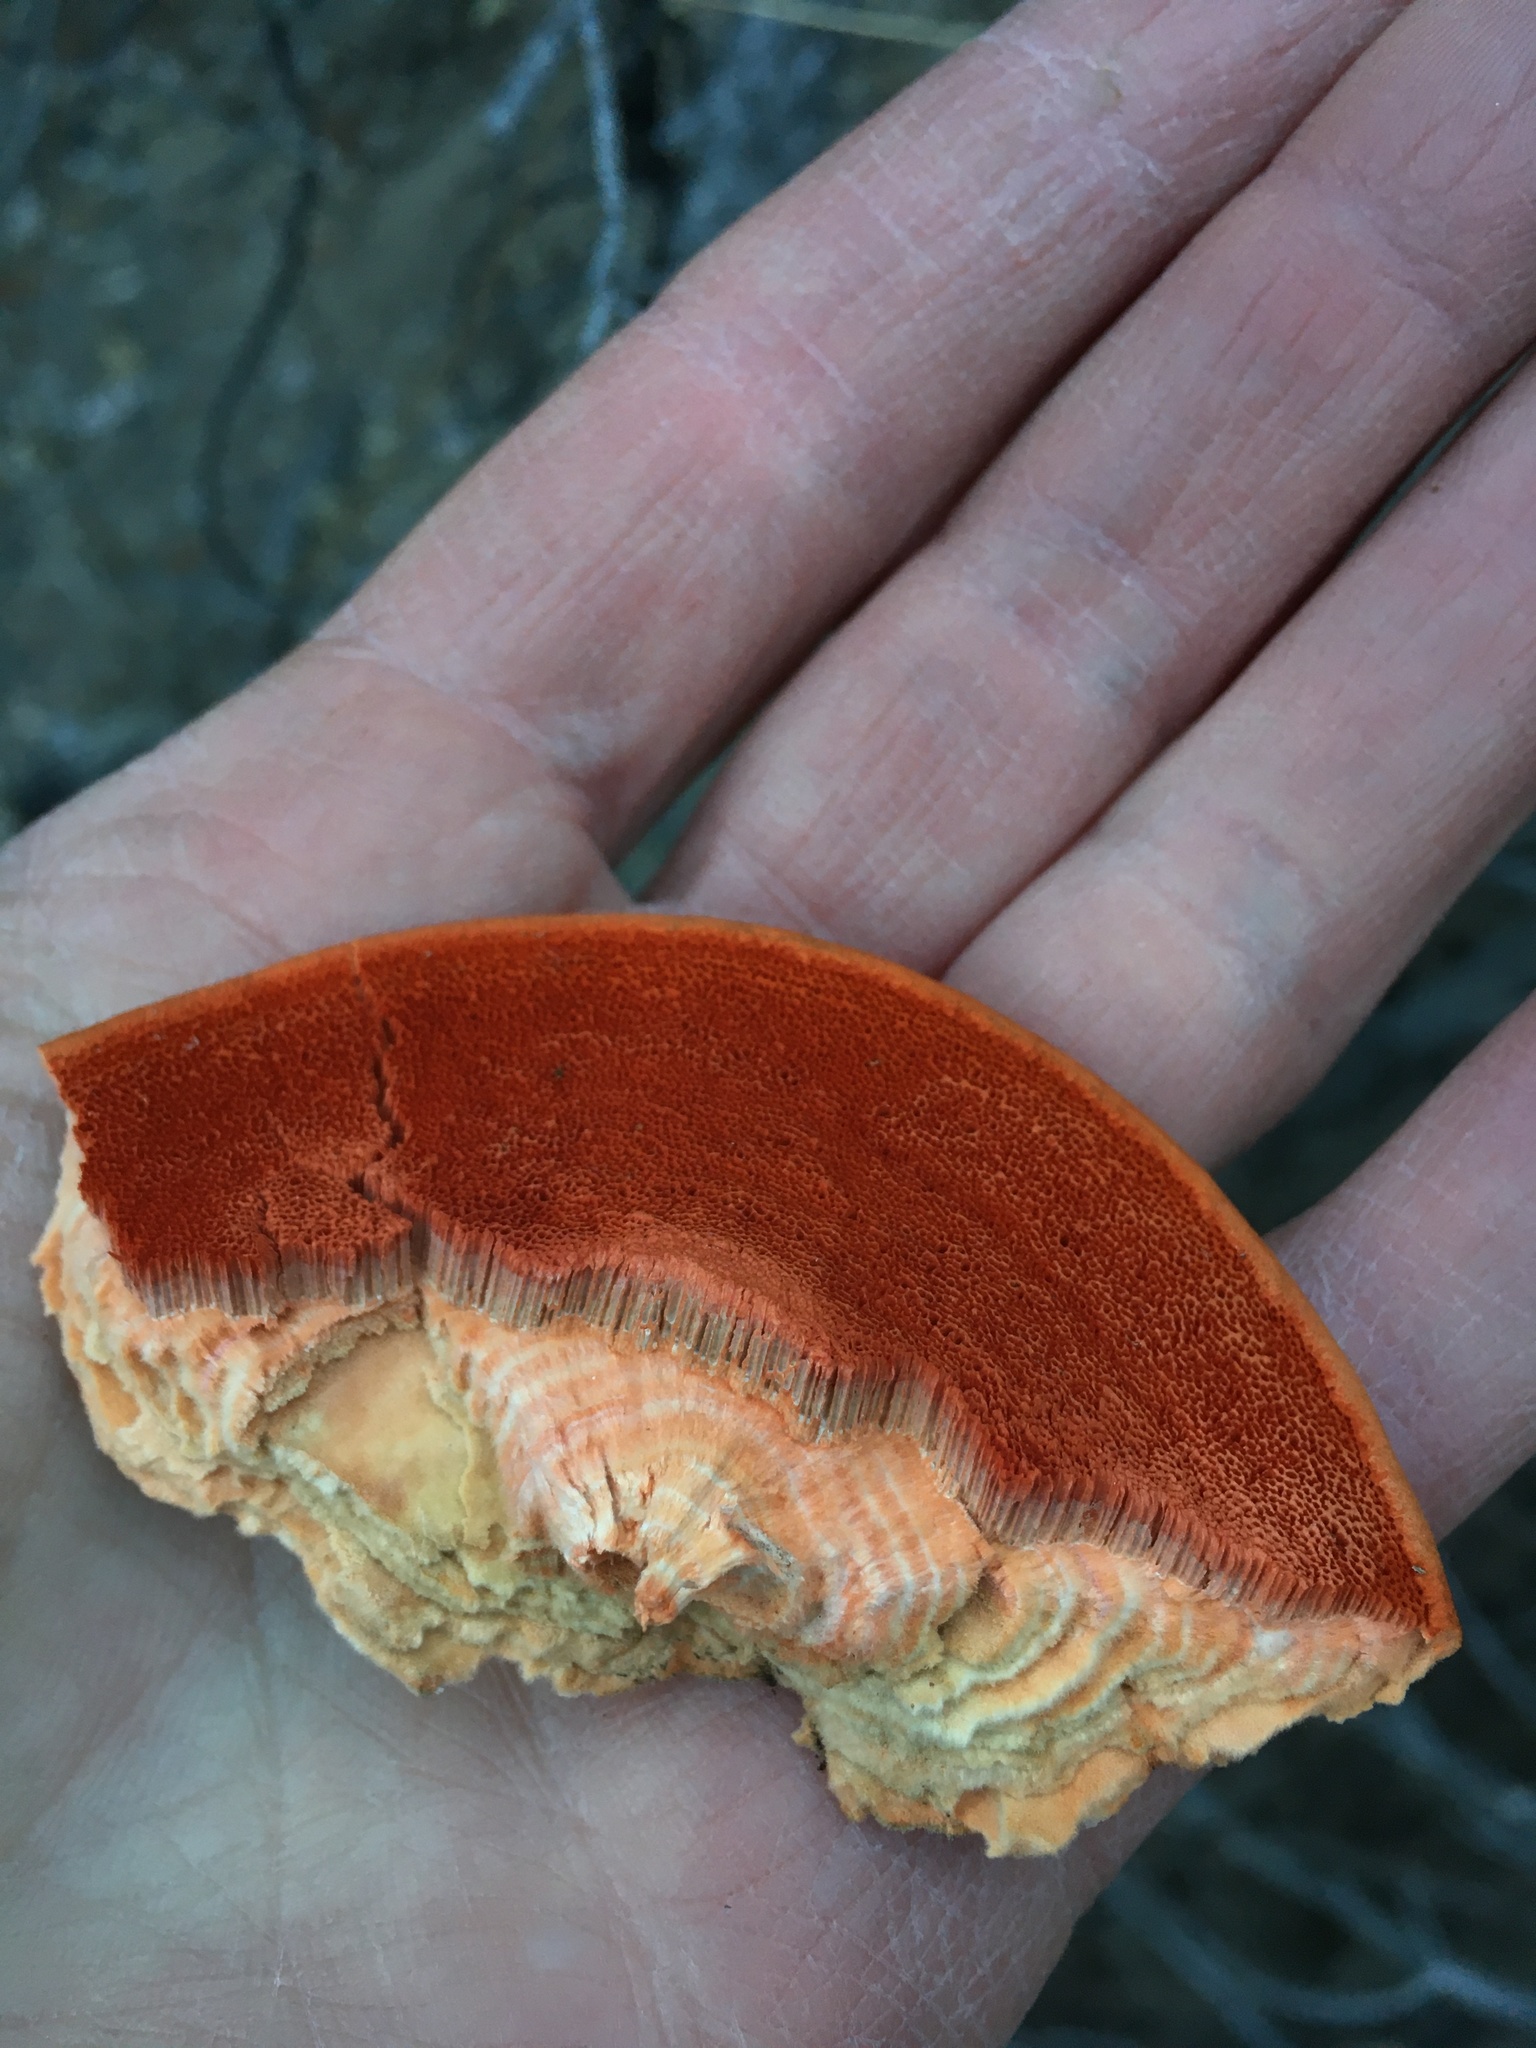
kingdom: Fungi
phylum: Basidiomycota
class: Agaricomycetes
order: Polyporales
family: Polyporaceae
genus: Trametes
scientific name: Trametes cinnabarina
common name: Northern cinnabar polypore
